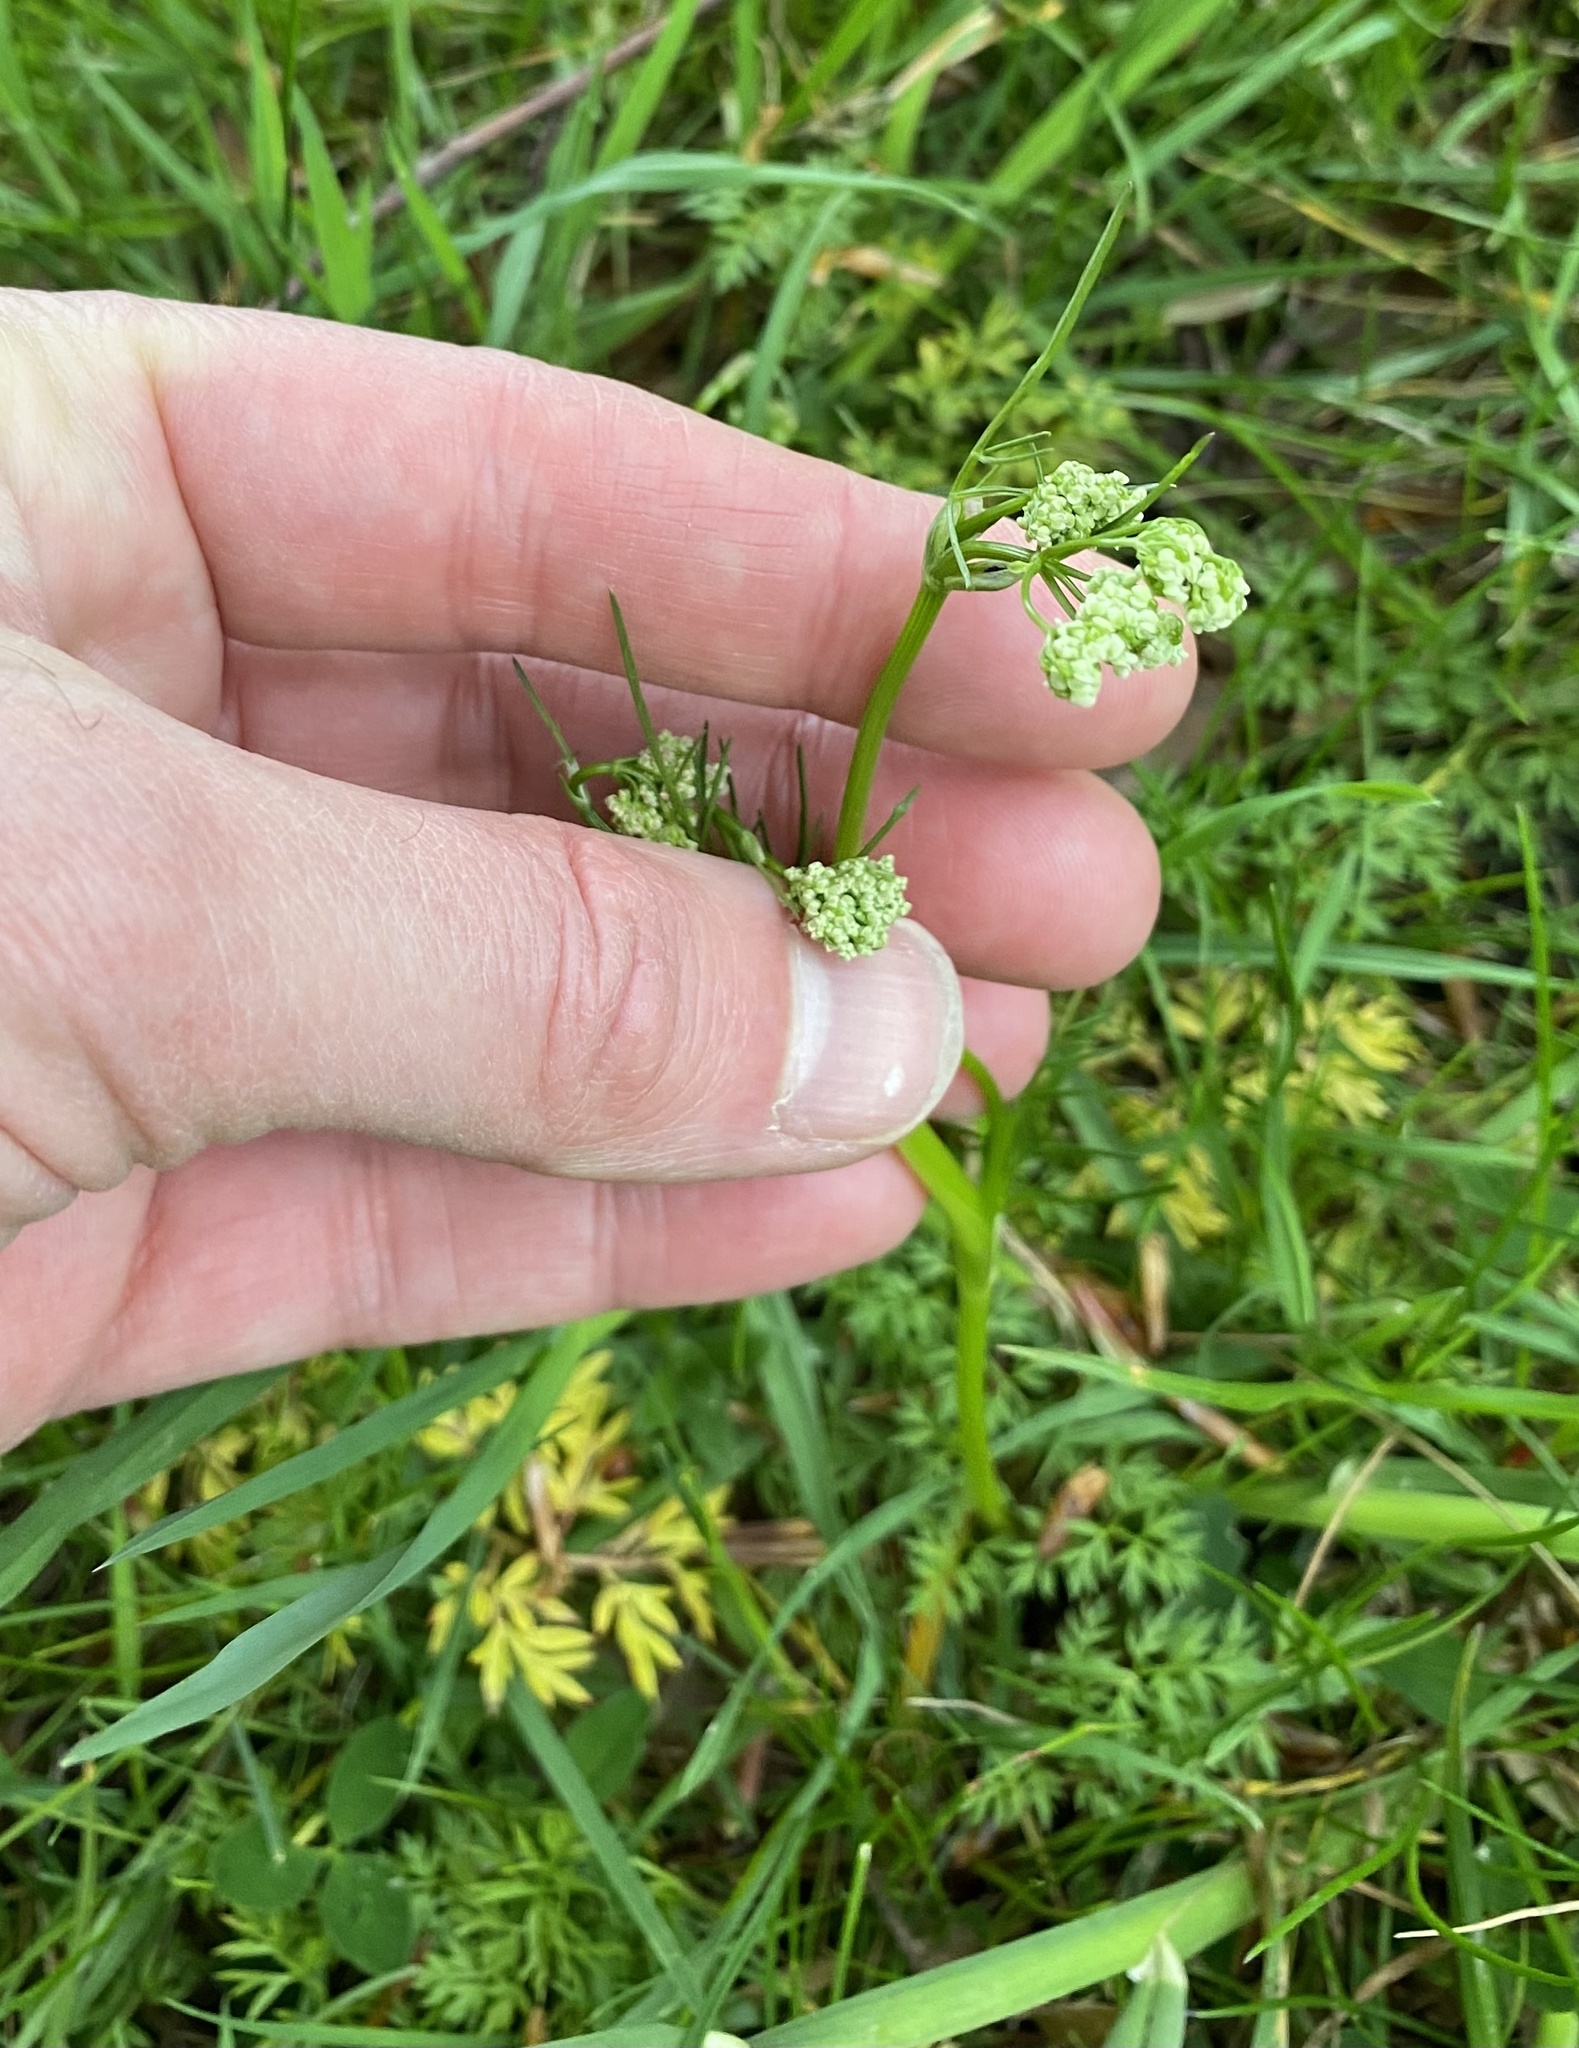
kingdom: Plantae
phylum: Tracheophyta
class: Magnoliopsida
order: Apiales
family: Apiaceae
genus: Conopodium
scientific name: Conopodium majus
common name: Pignut
